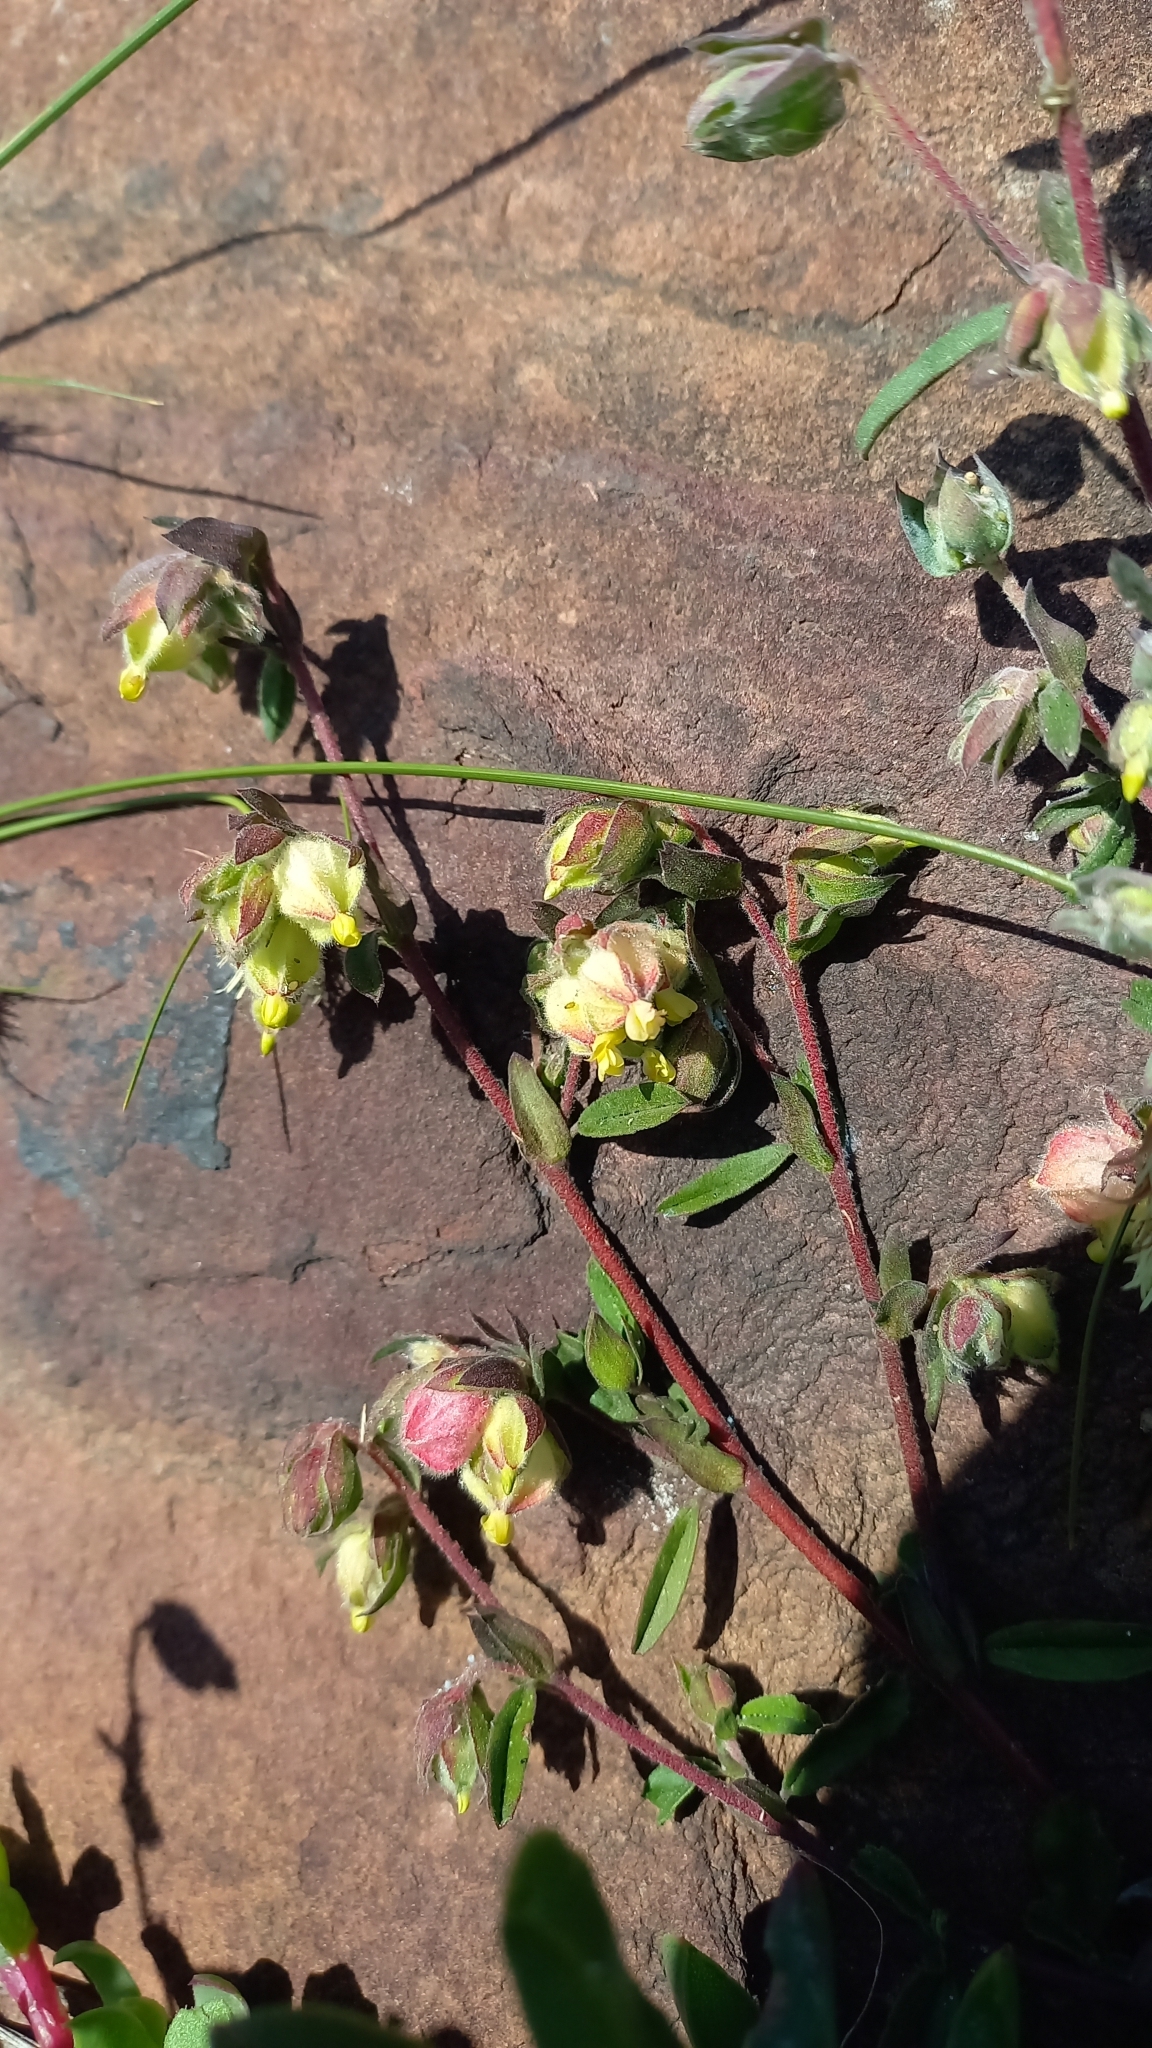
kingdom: Plantae
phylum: Tracheophyta
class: Magnoliopsida
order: Malvales
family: Malvaceae
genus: Hermannia
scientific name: Hermannia hyssopifolia
